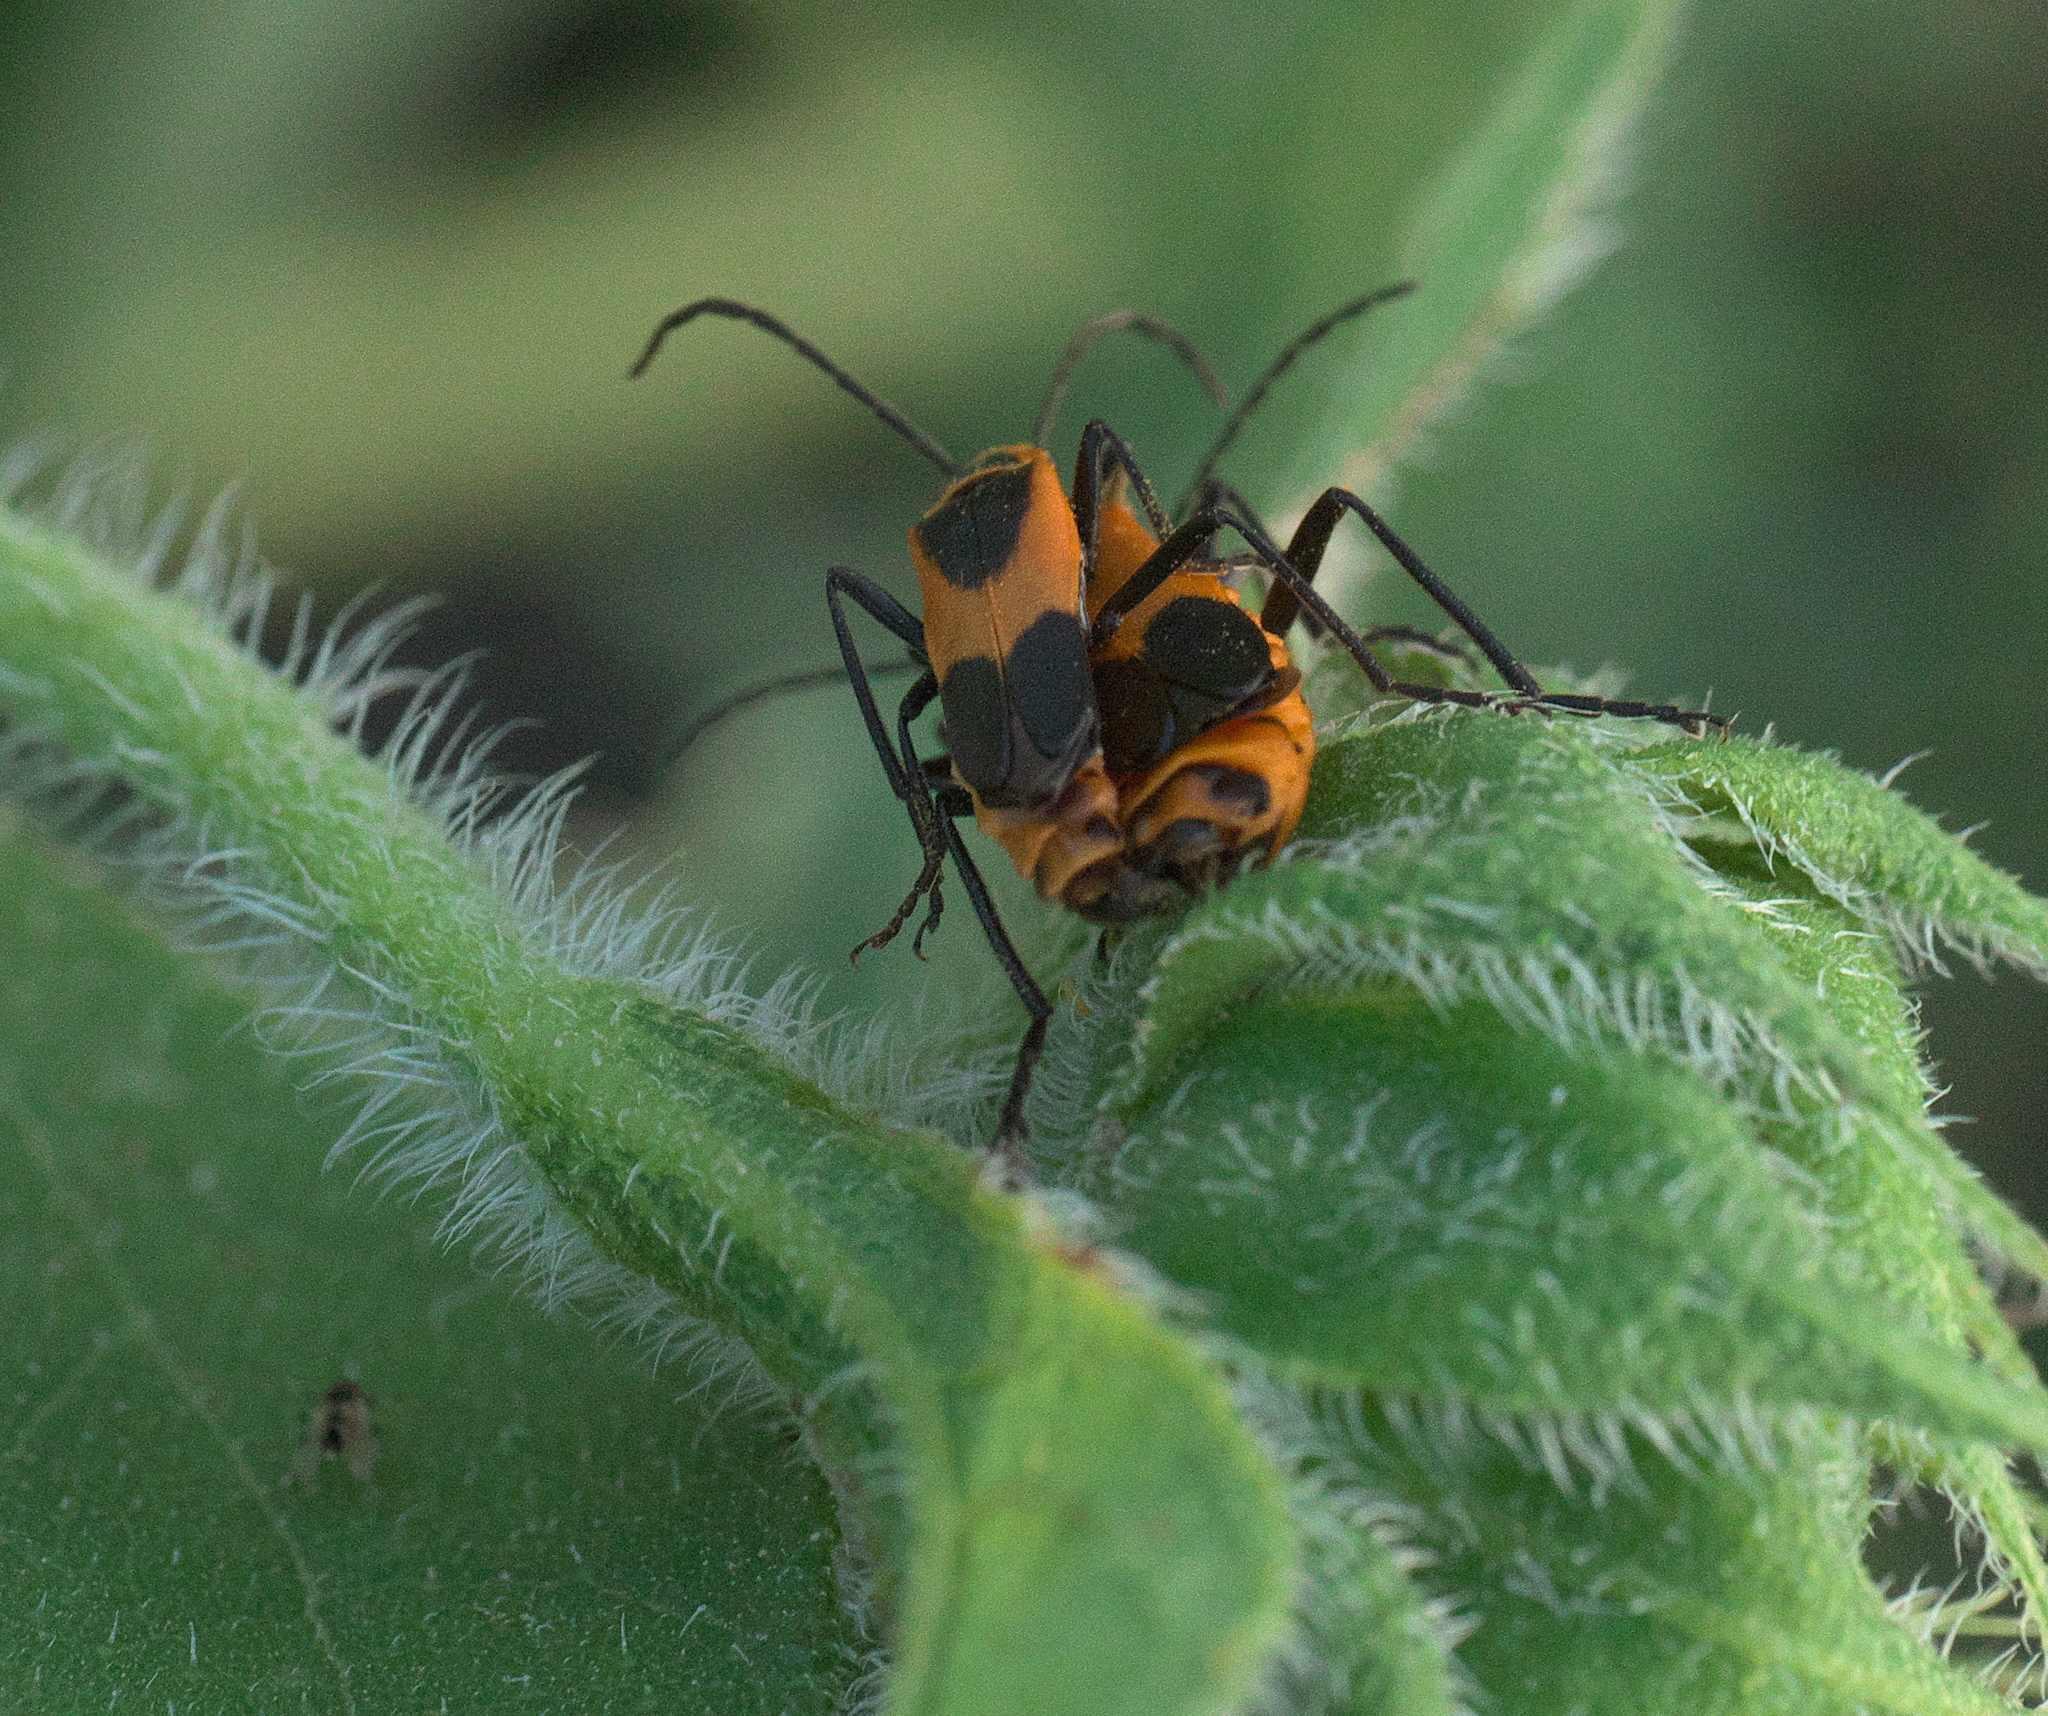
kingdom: Animalia
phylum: Arthropoda
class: Insecta
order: Coleoptera
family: Cantharidae
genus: Chauliognathus
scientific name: Chauliognathus basalis
